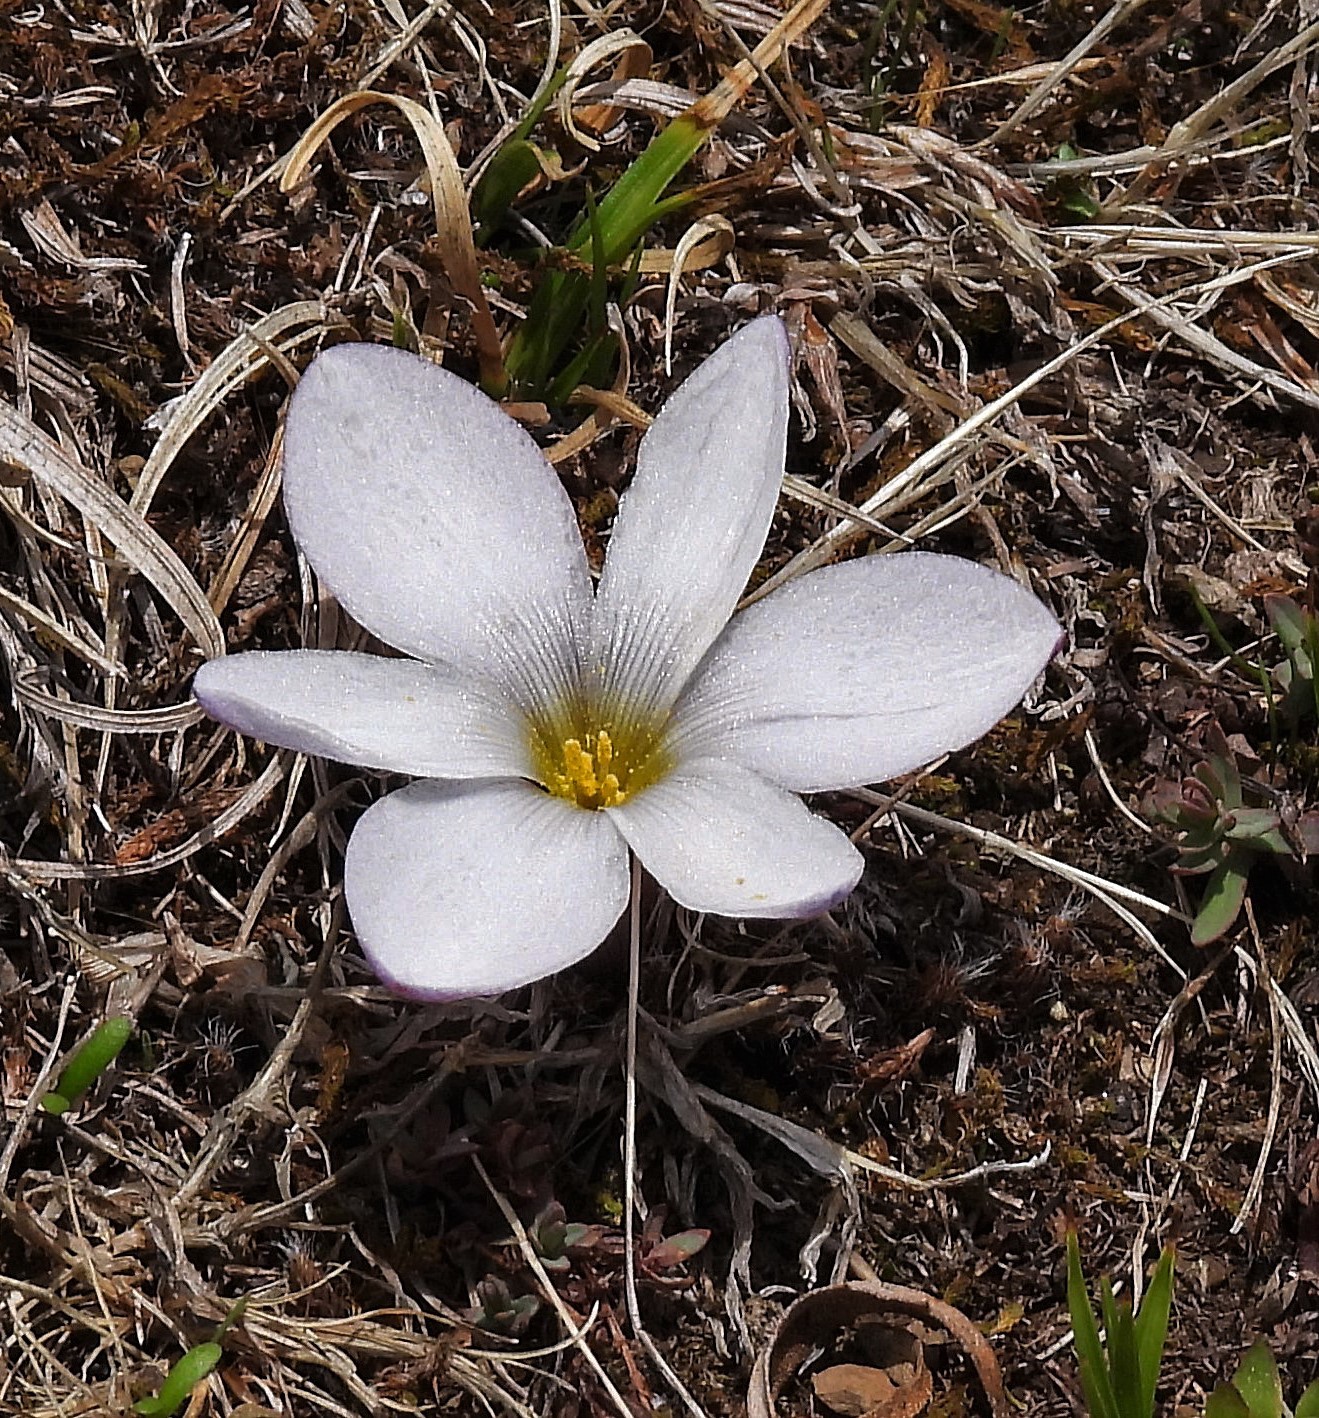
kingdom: Plantae
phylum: Tracheophyta
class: Liliopsida
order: Asparagales
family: Amaryllidaceae
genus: Zephyranthes
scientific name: Zephyranthes andina
